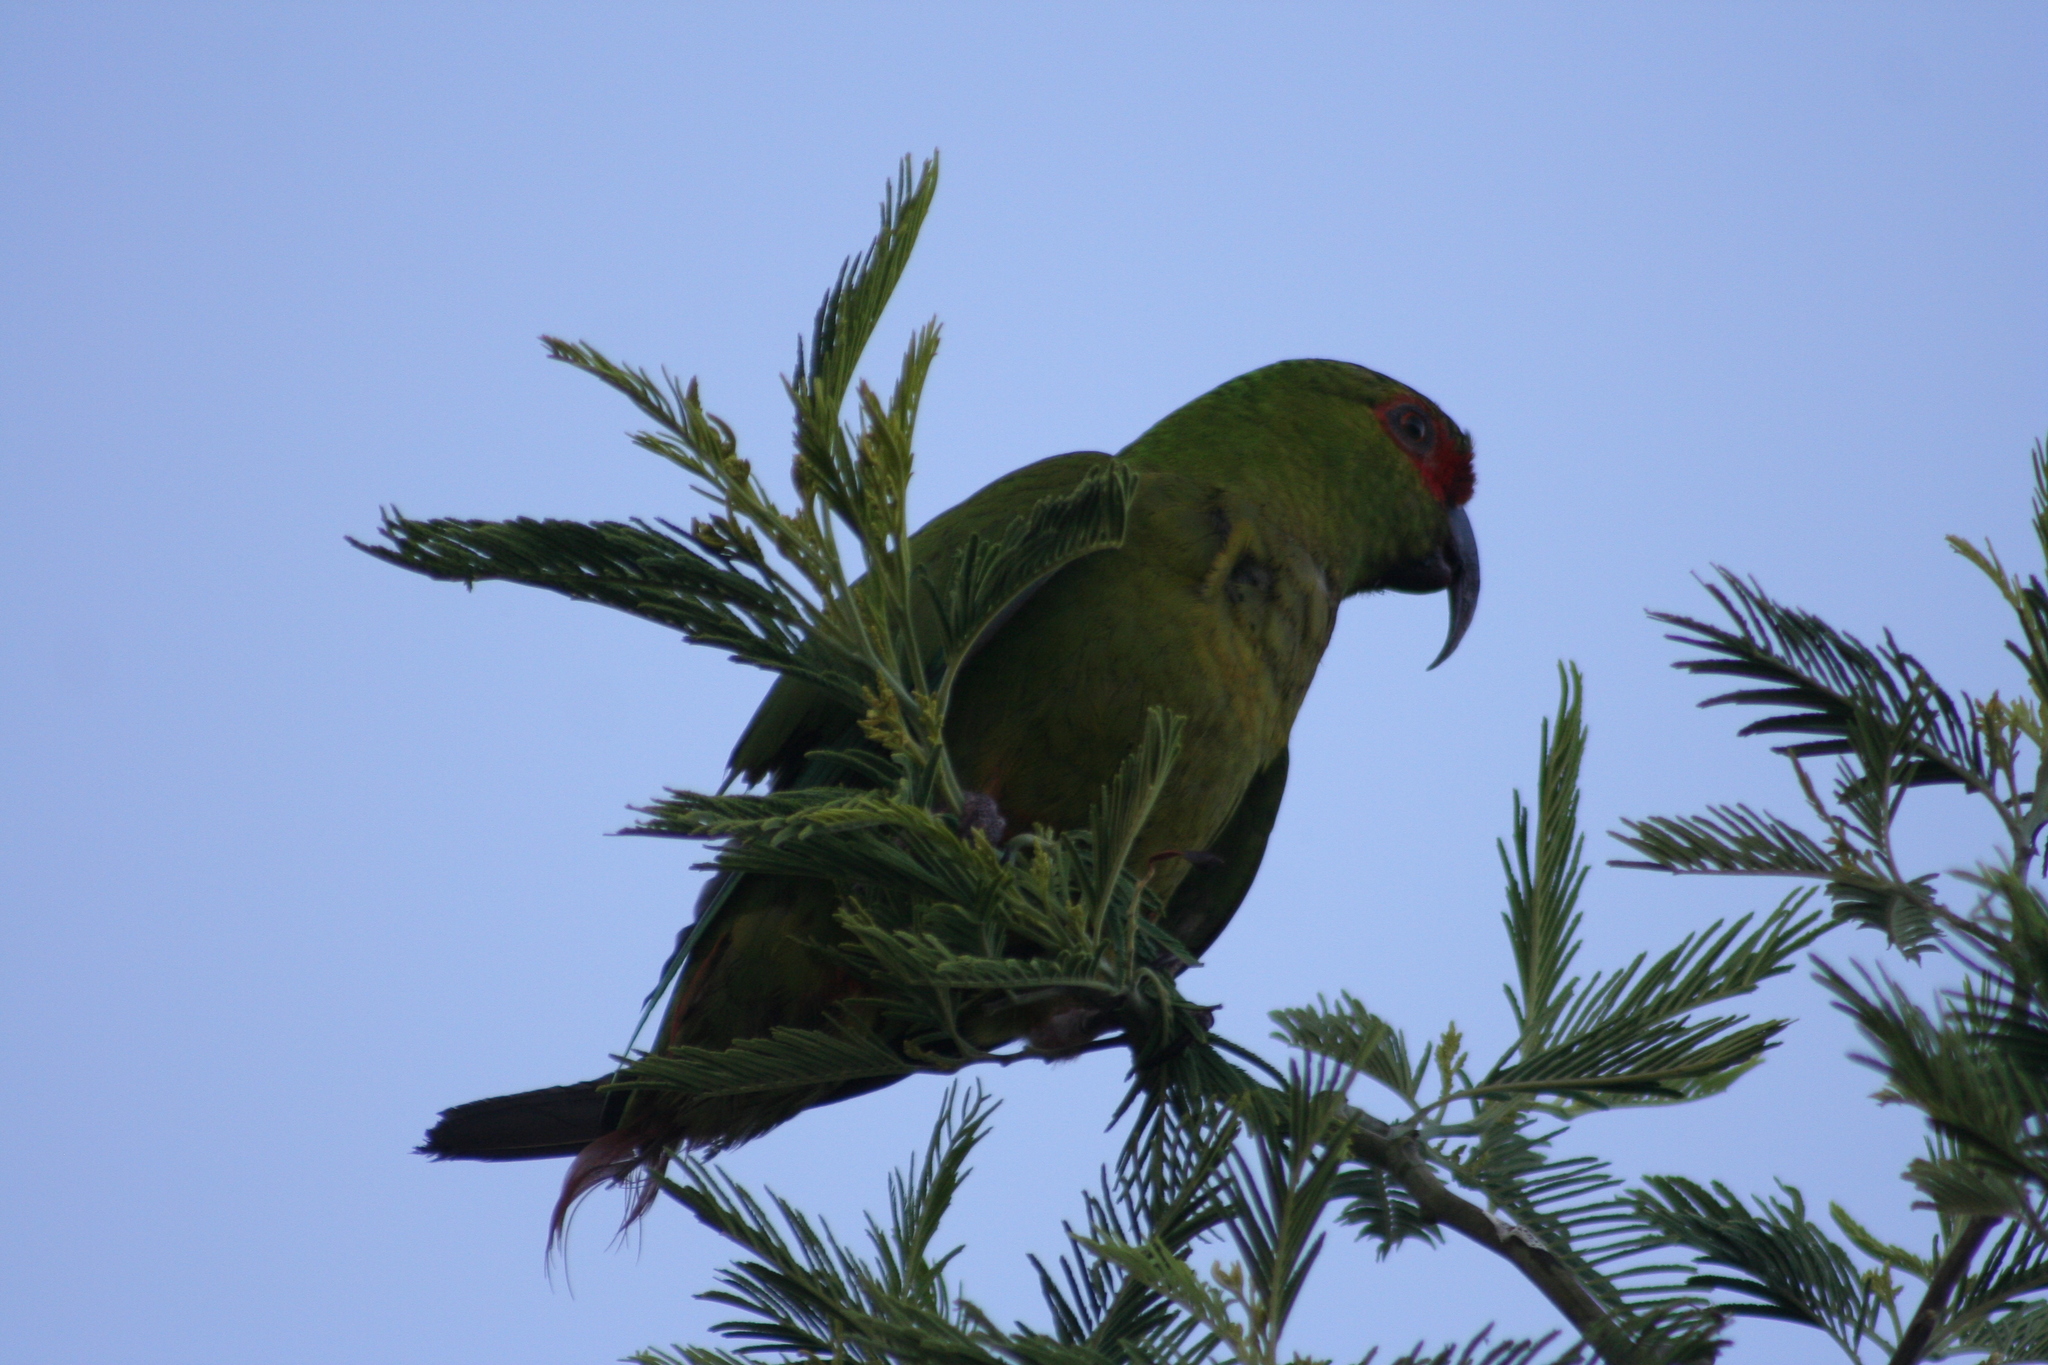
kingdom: Animalia
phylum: Chordata
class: Aves
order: Psittaciformes
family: Psittacidae
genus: Enicognathus
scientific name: Enicognathus leptorhynchus
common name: Slender-billed parakeet
